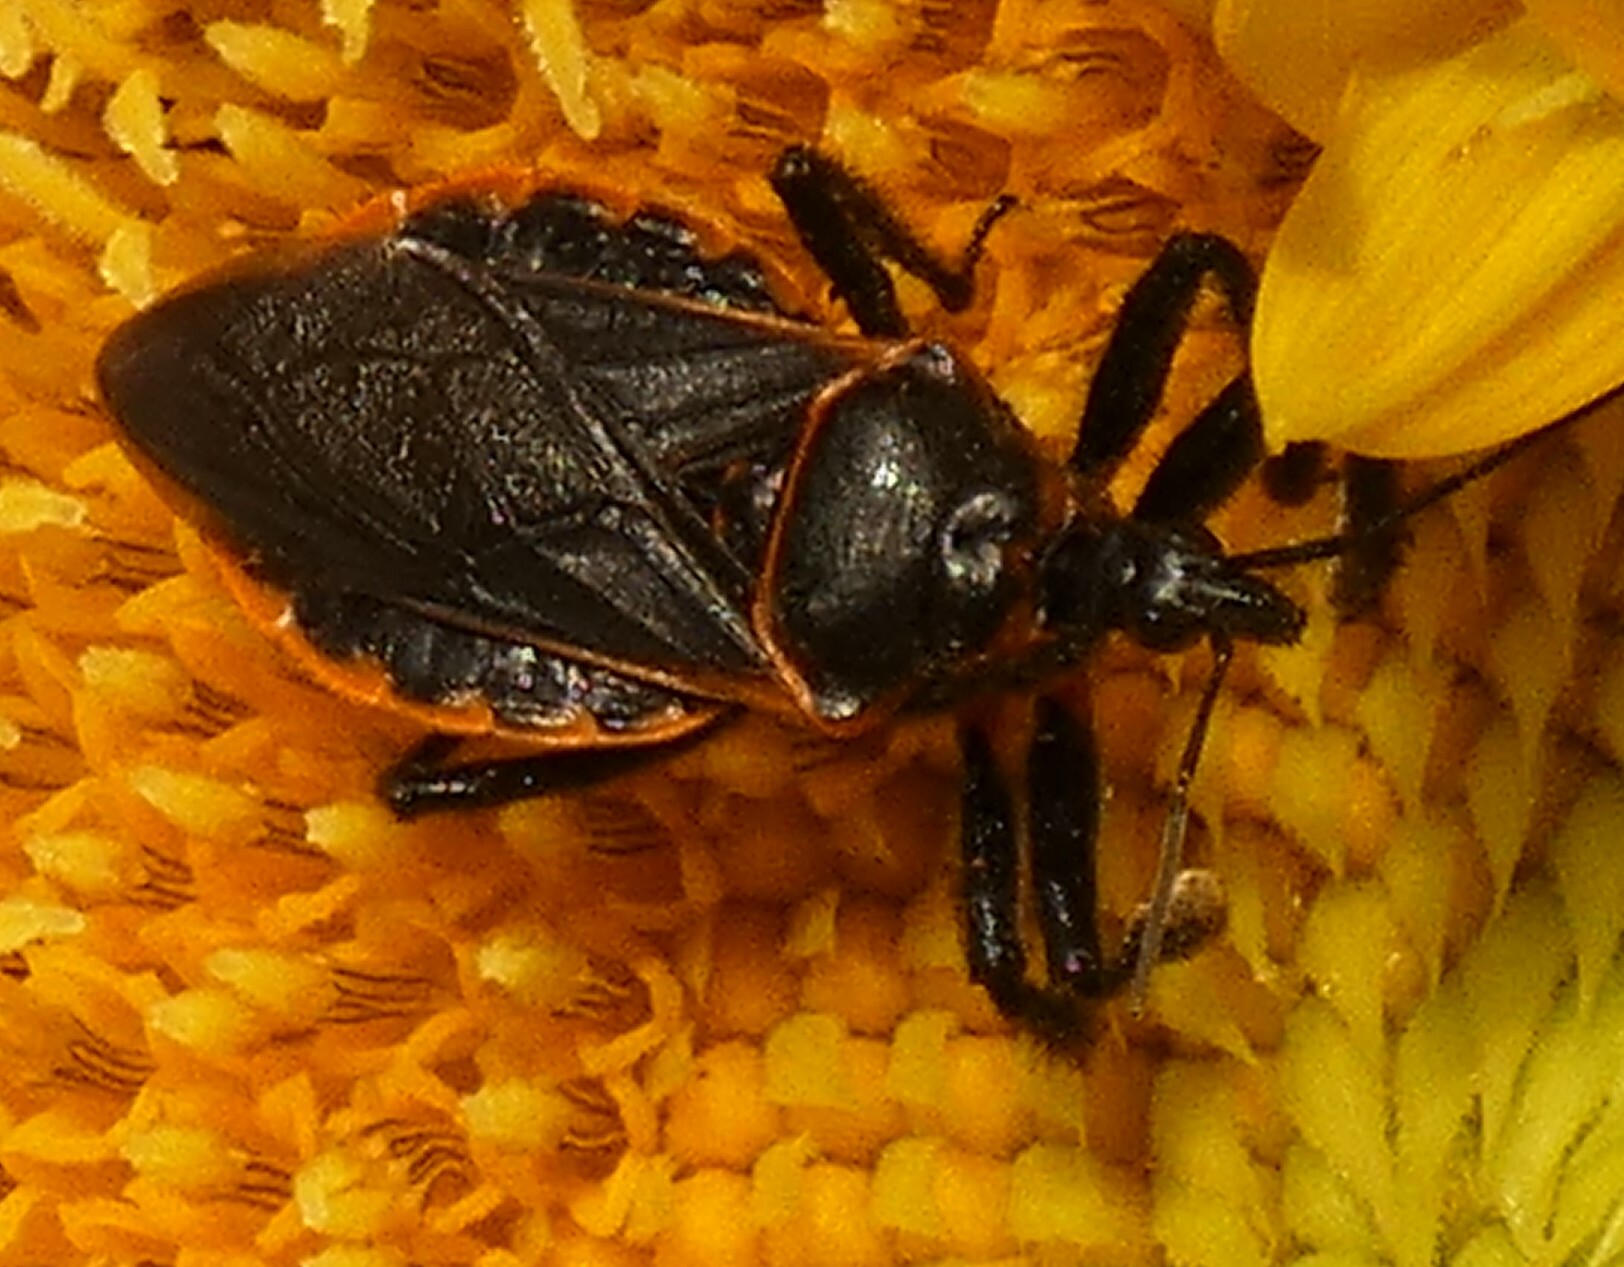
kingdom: Animalia
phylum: Arthropoda
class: Insecta
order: Hemiptera
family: Reduviidae
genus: Apiomerus
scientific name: Apiomerus crassipes
